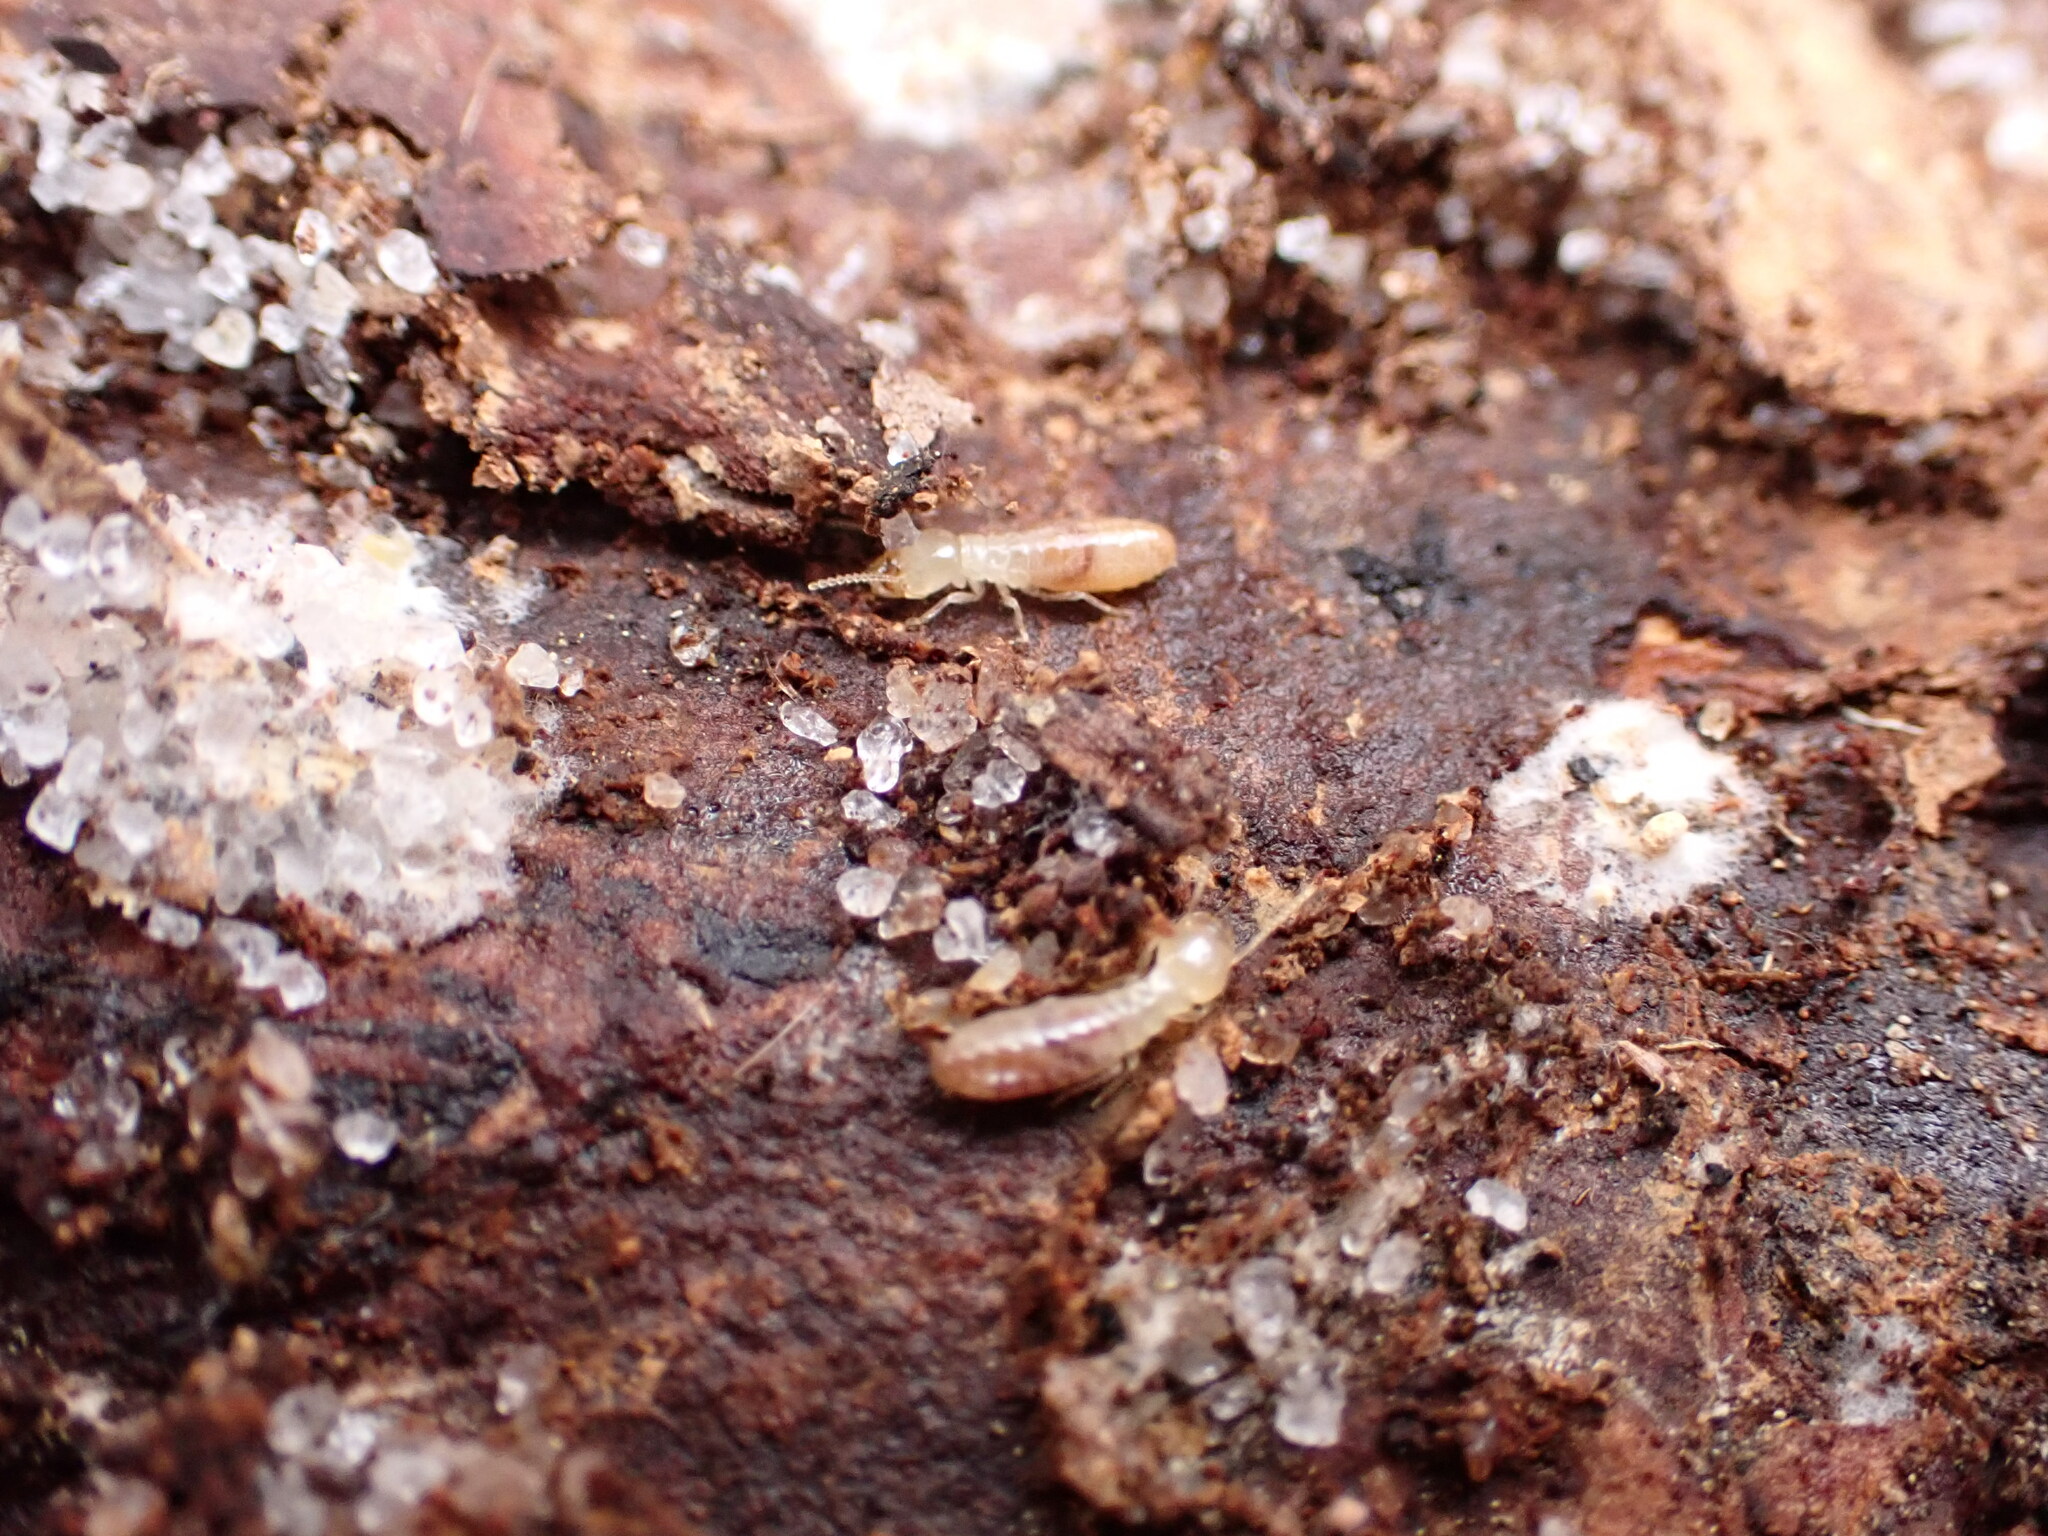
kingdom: Animalia
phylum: Arthropoda
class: Insecta
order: Blattodea
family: Rhinotermitidae
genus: Reticulitermes
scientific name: Reticulitermes flavipes
